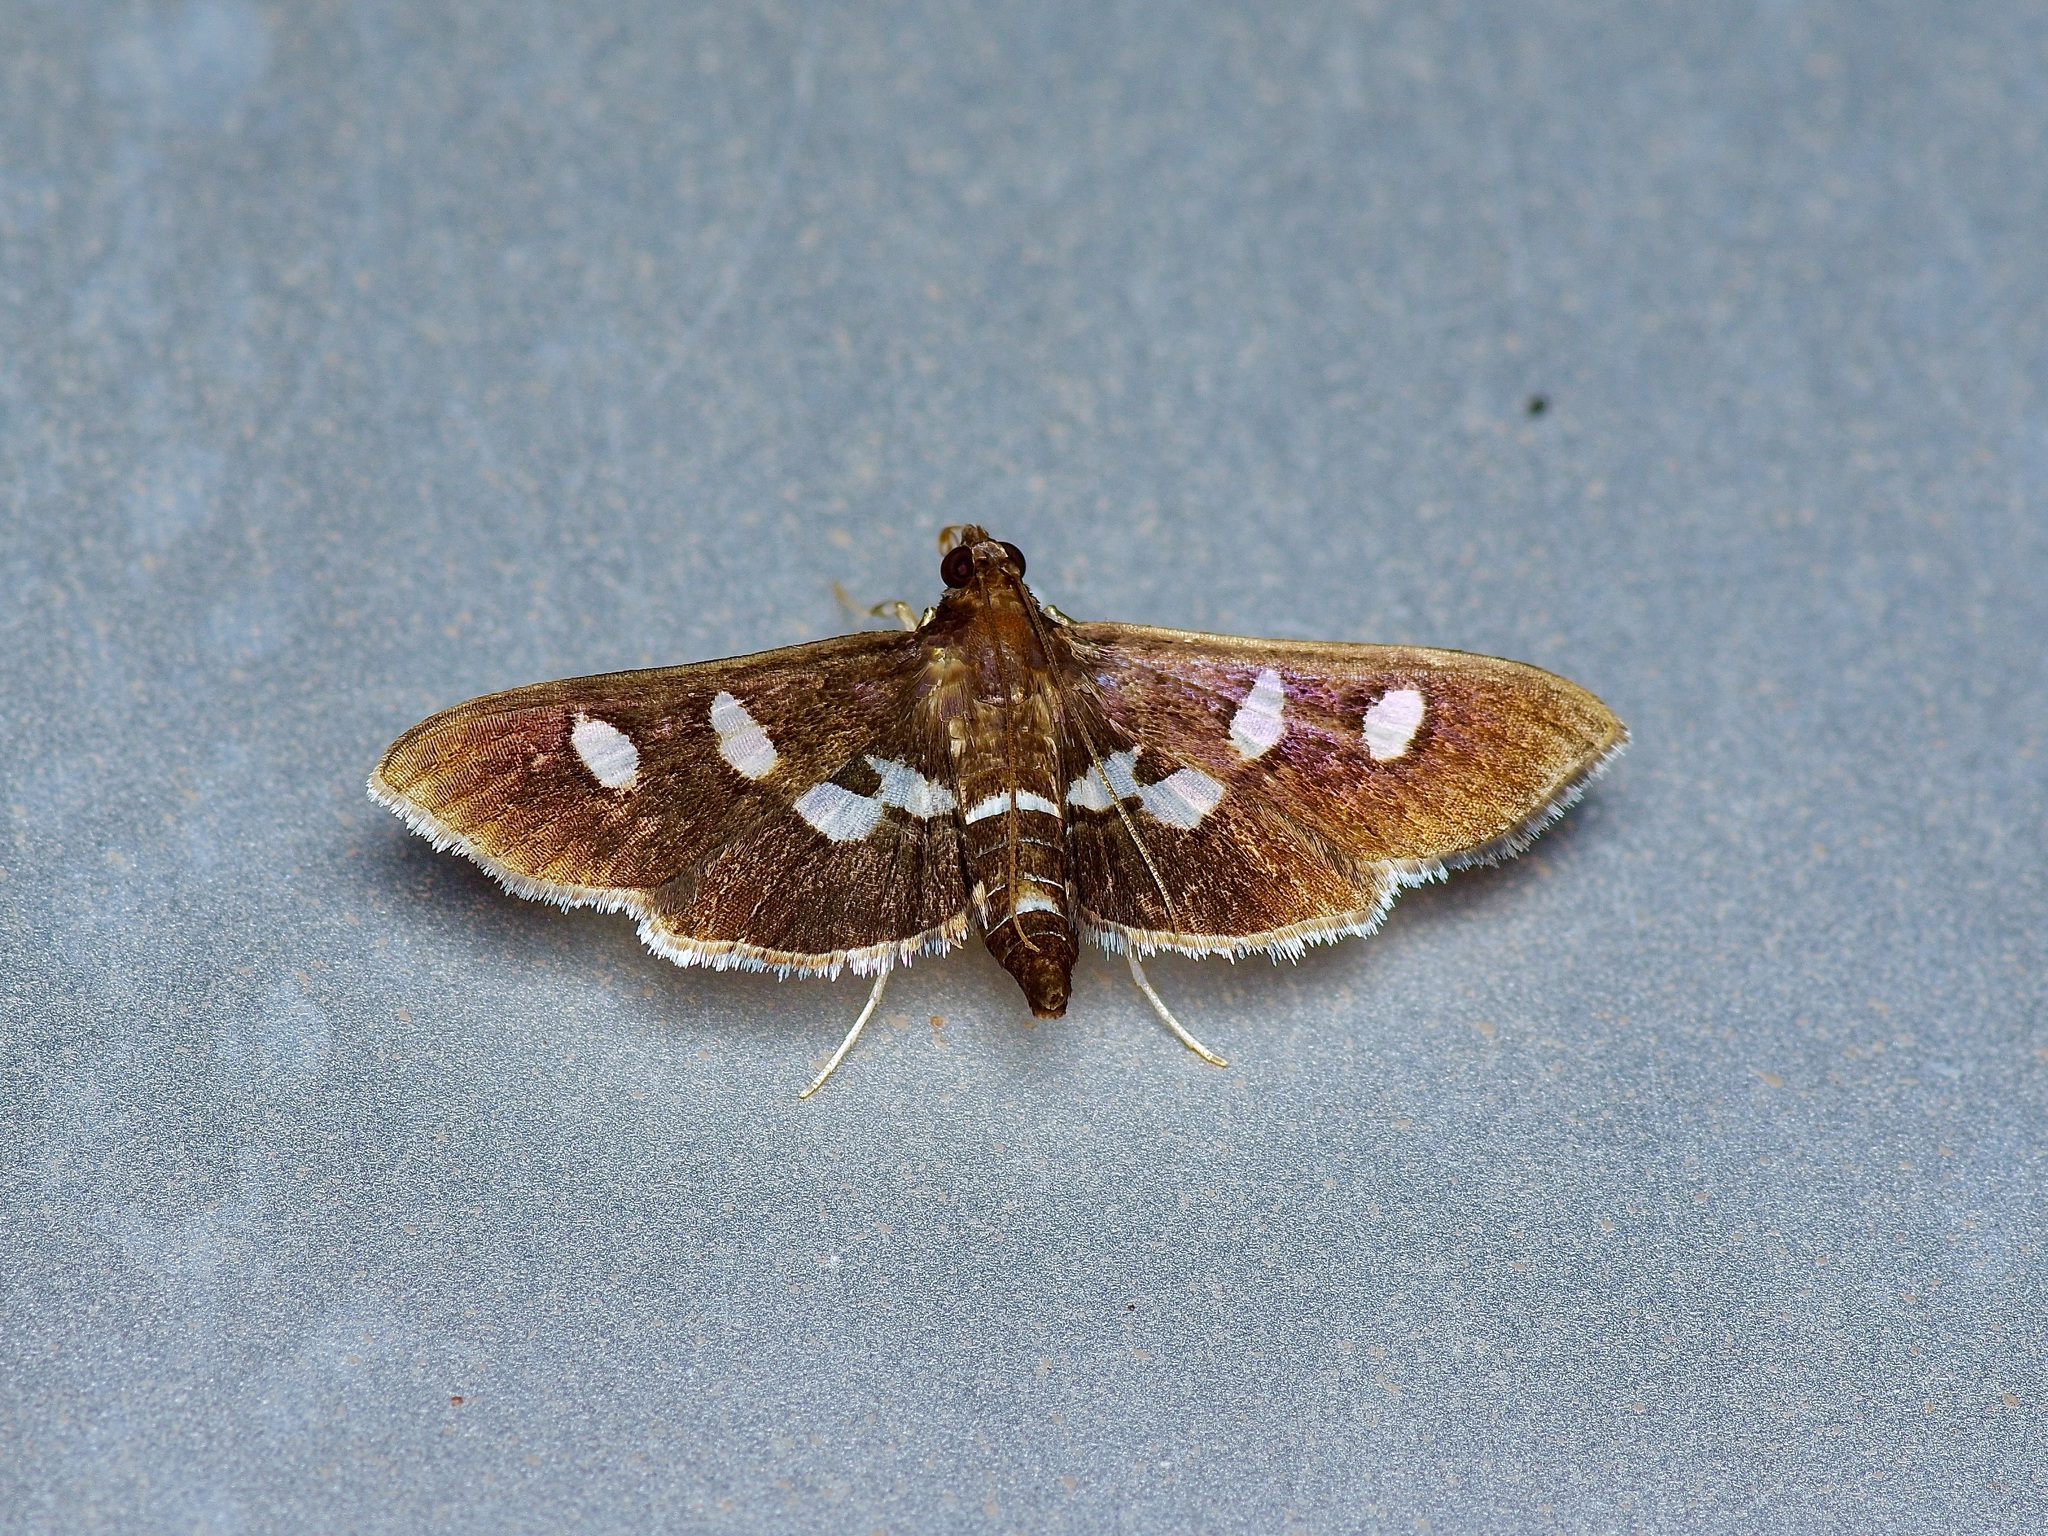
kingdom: Animalia
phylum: Arthropoda
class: Insecta
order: Lepidoptera
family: Crambidae
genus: Desmia
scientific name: Desmia funeralis
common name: Grape leaf folder moth
